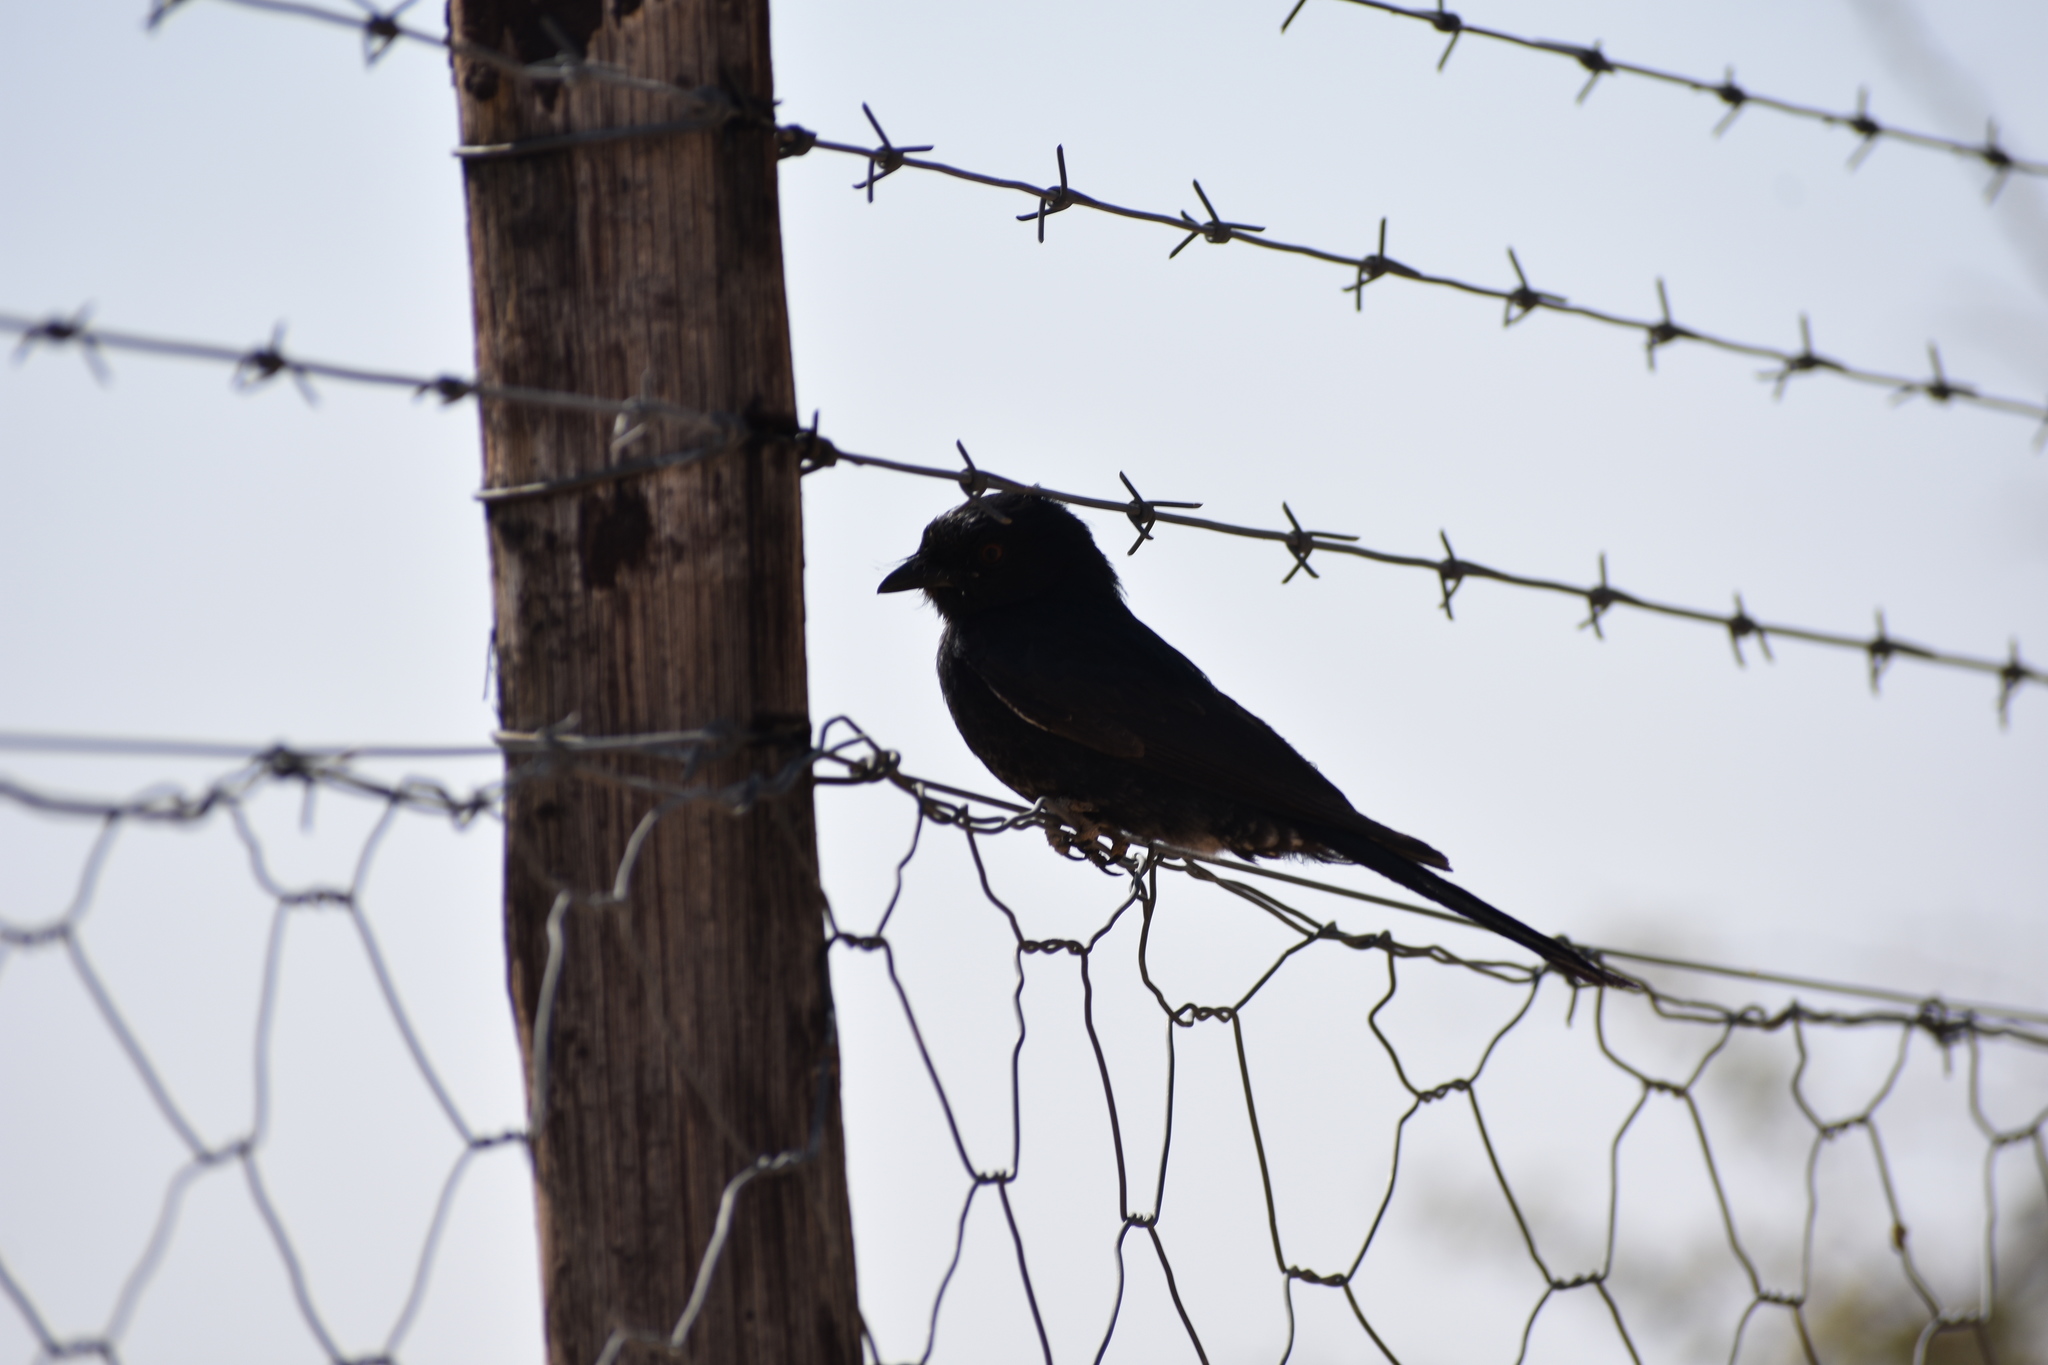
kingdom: Animalia
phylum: Chordata
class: Aves
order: Passeriformes
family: Dicruridae
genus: Dicrurus
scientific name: Dicrurus adsimilis
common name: Fork-tailed drongo
